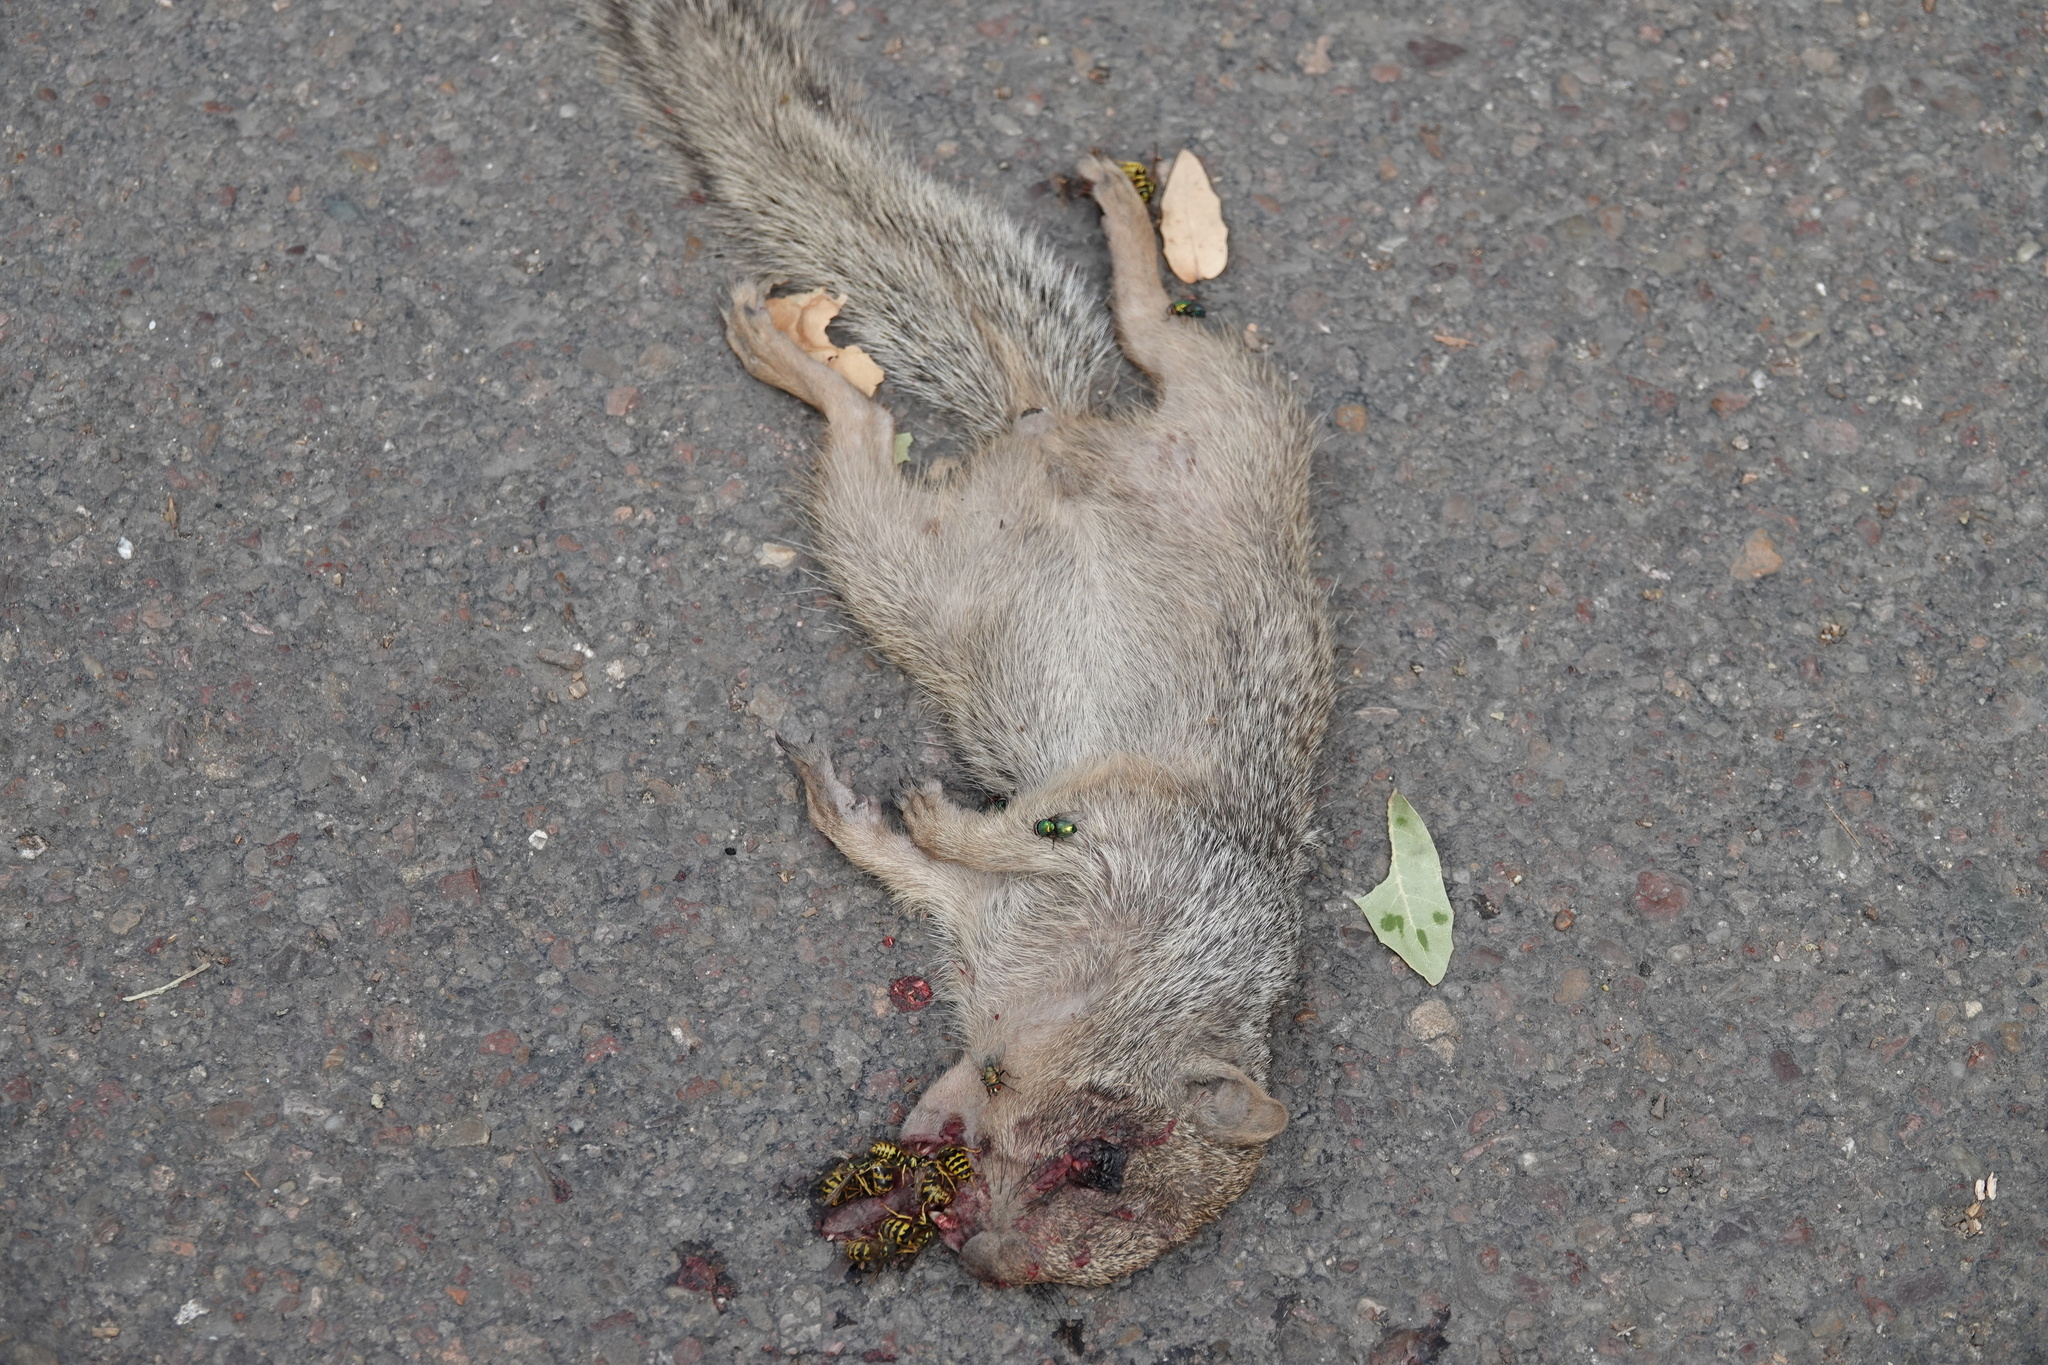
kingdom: Animalia
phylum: Chordata
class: Mammalia
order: Rodentia
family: Sciuridae
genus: Otospermophilus
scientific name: Otospermophilus variegatus
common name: Rock squirrel
